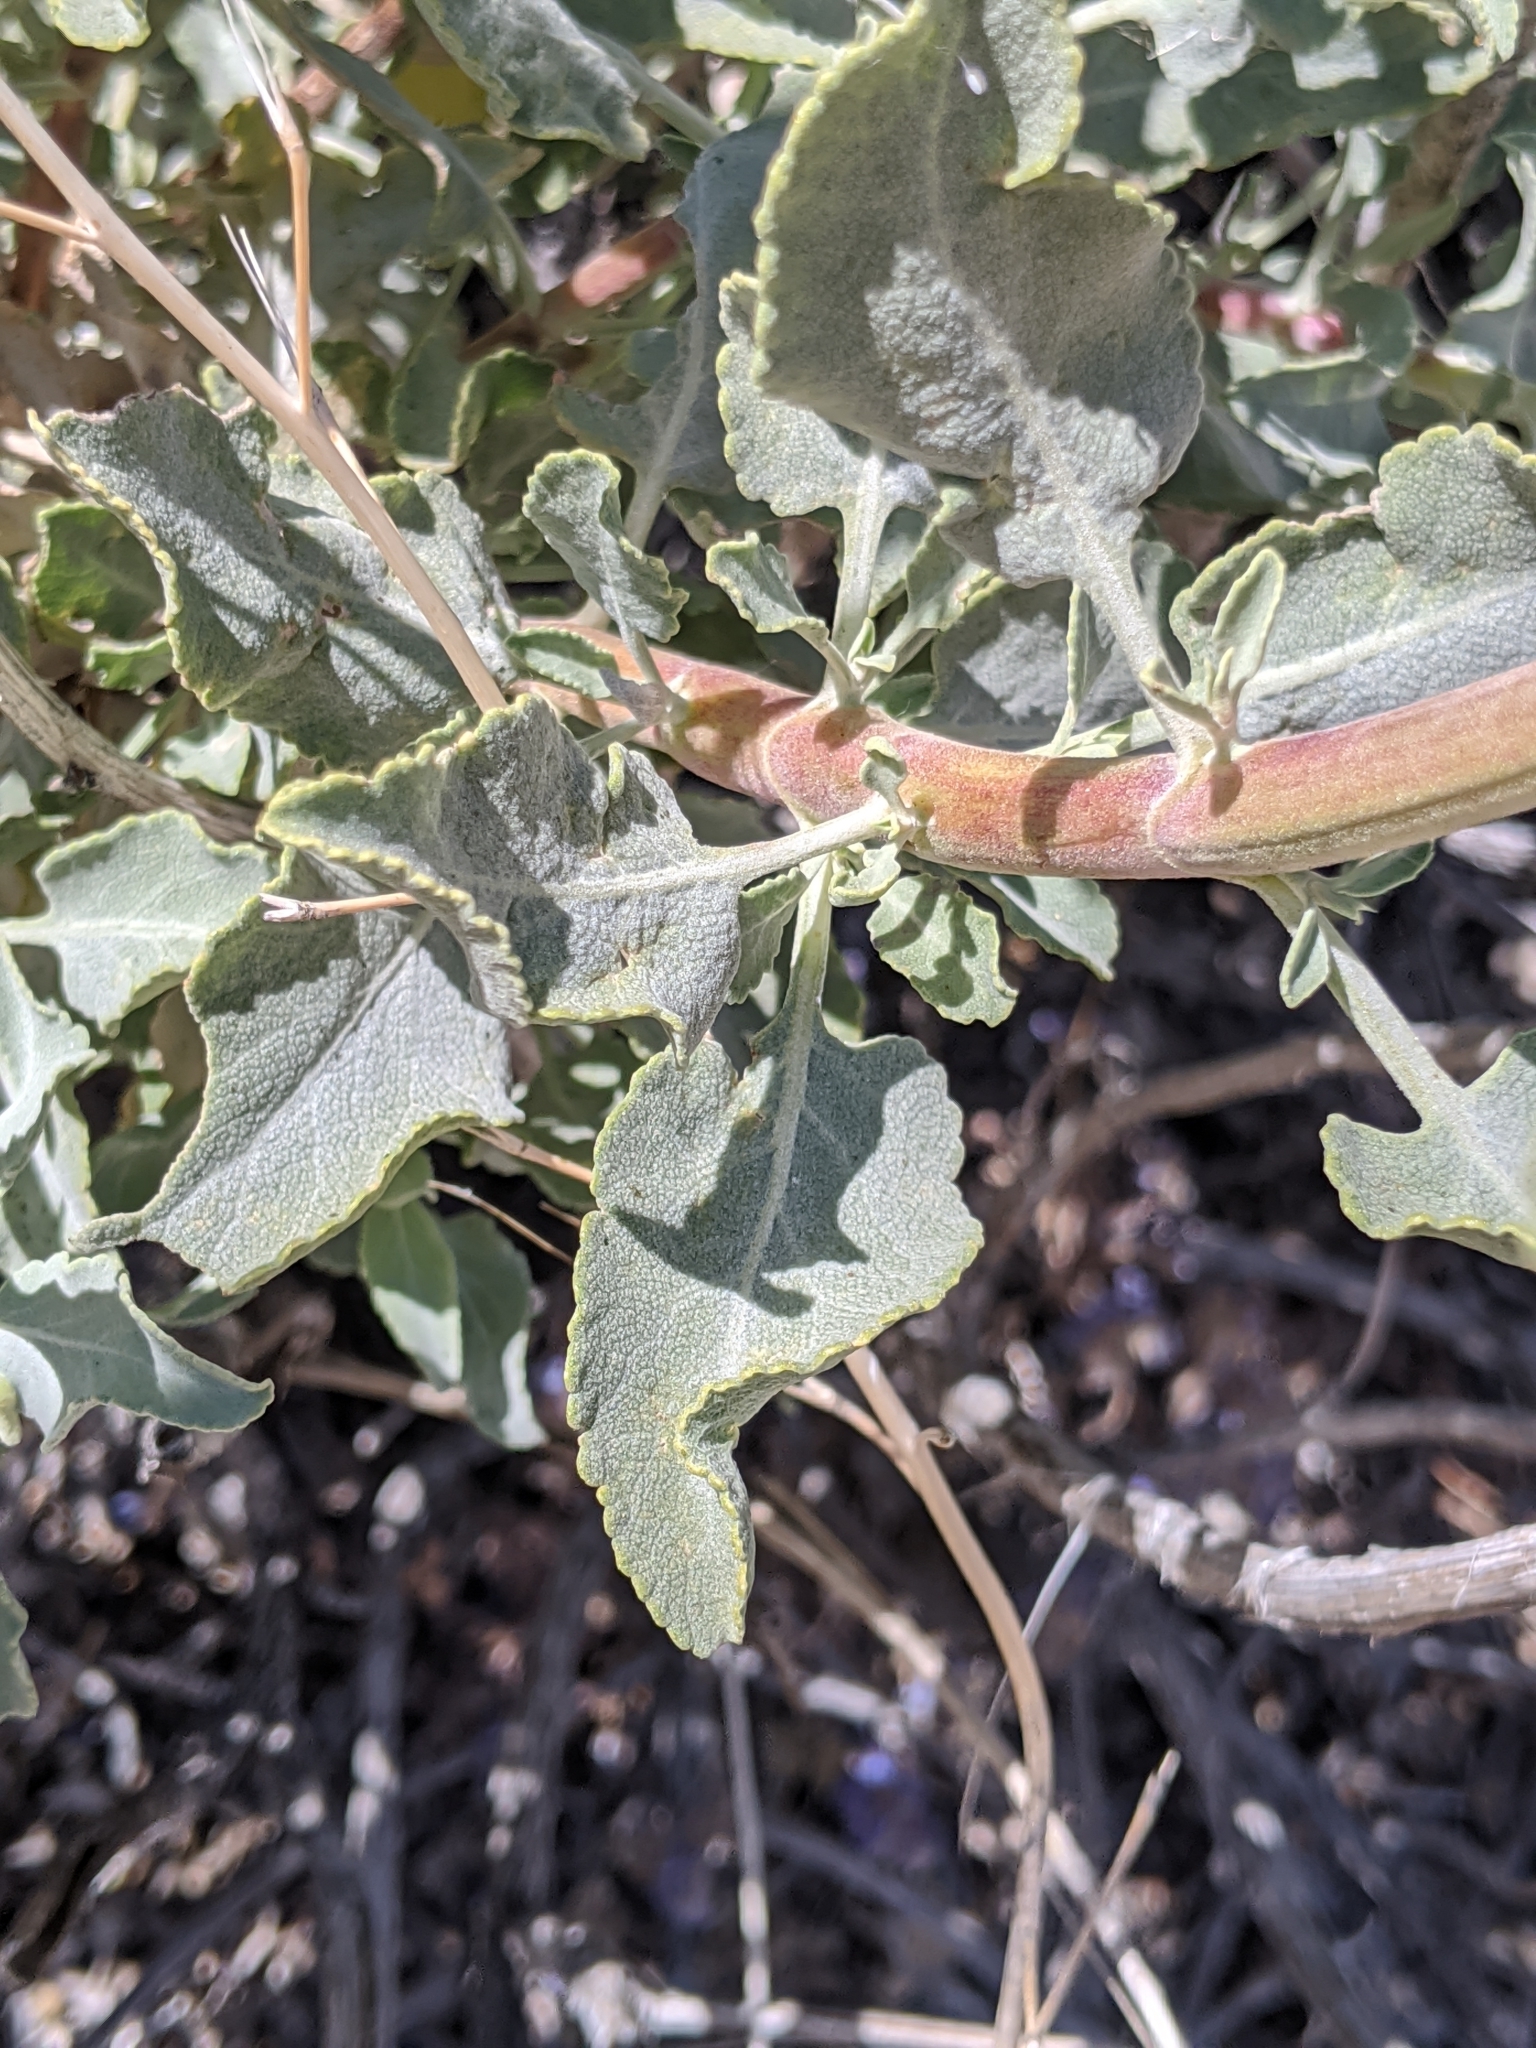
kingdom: Plantae
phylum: Tracheophyta
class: Magnoliopsida
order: Lamiales
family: Lamiaceae
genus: Salvia
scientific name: Salvia vaseyi
